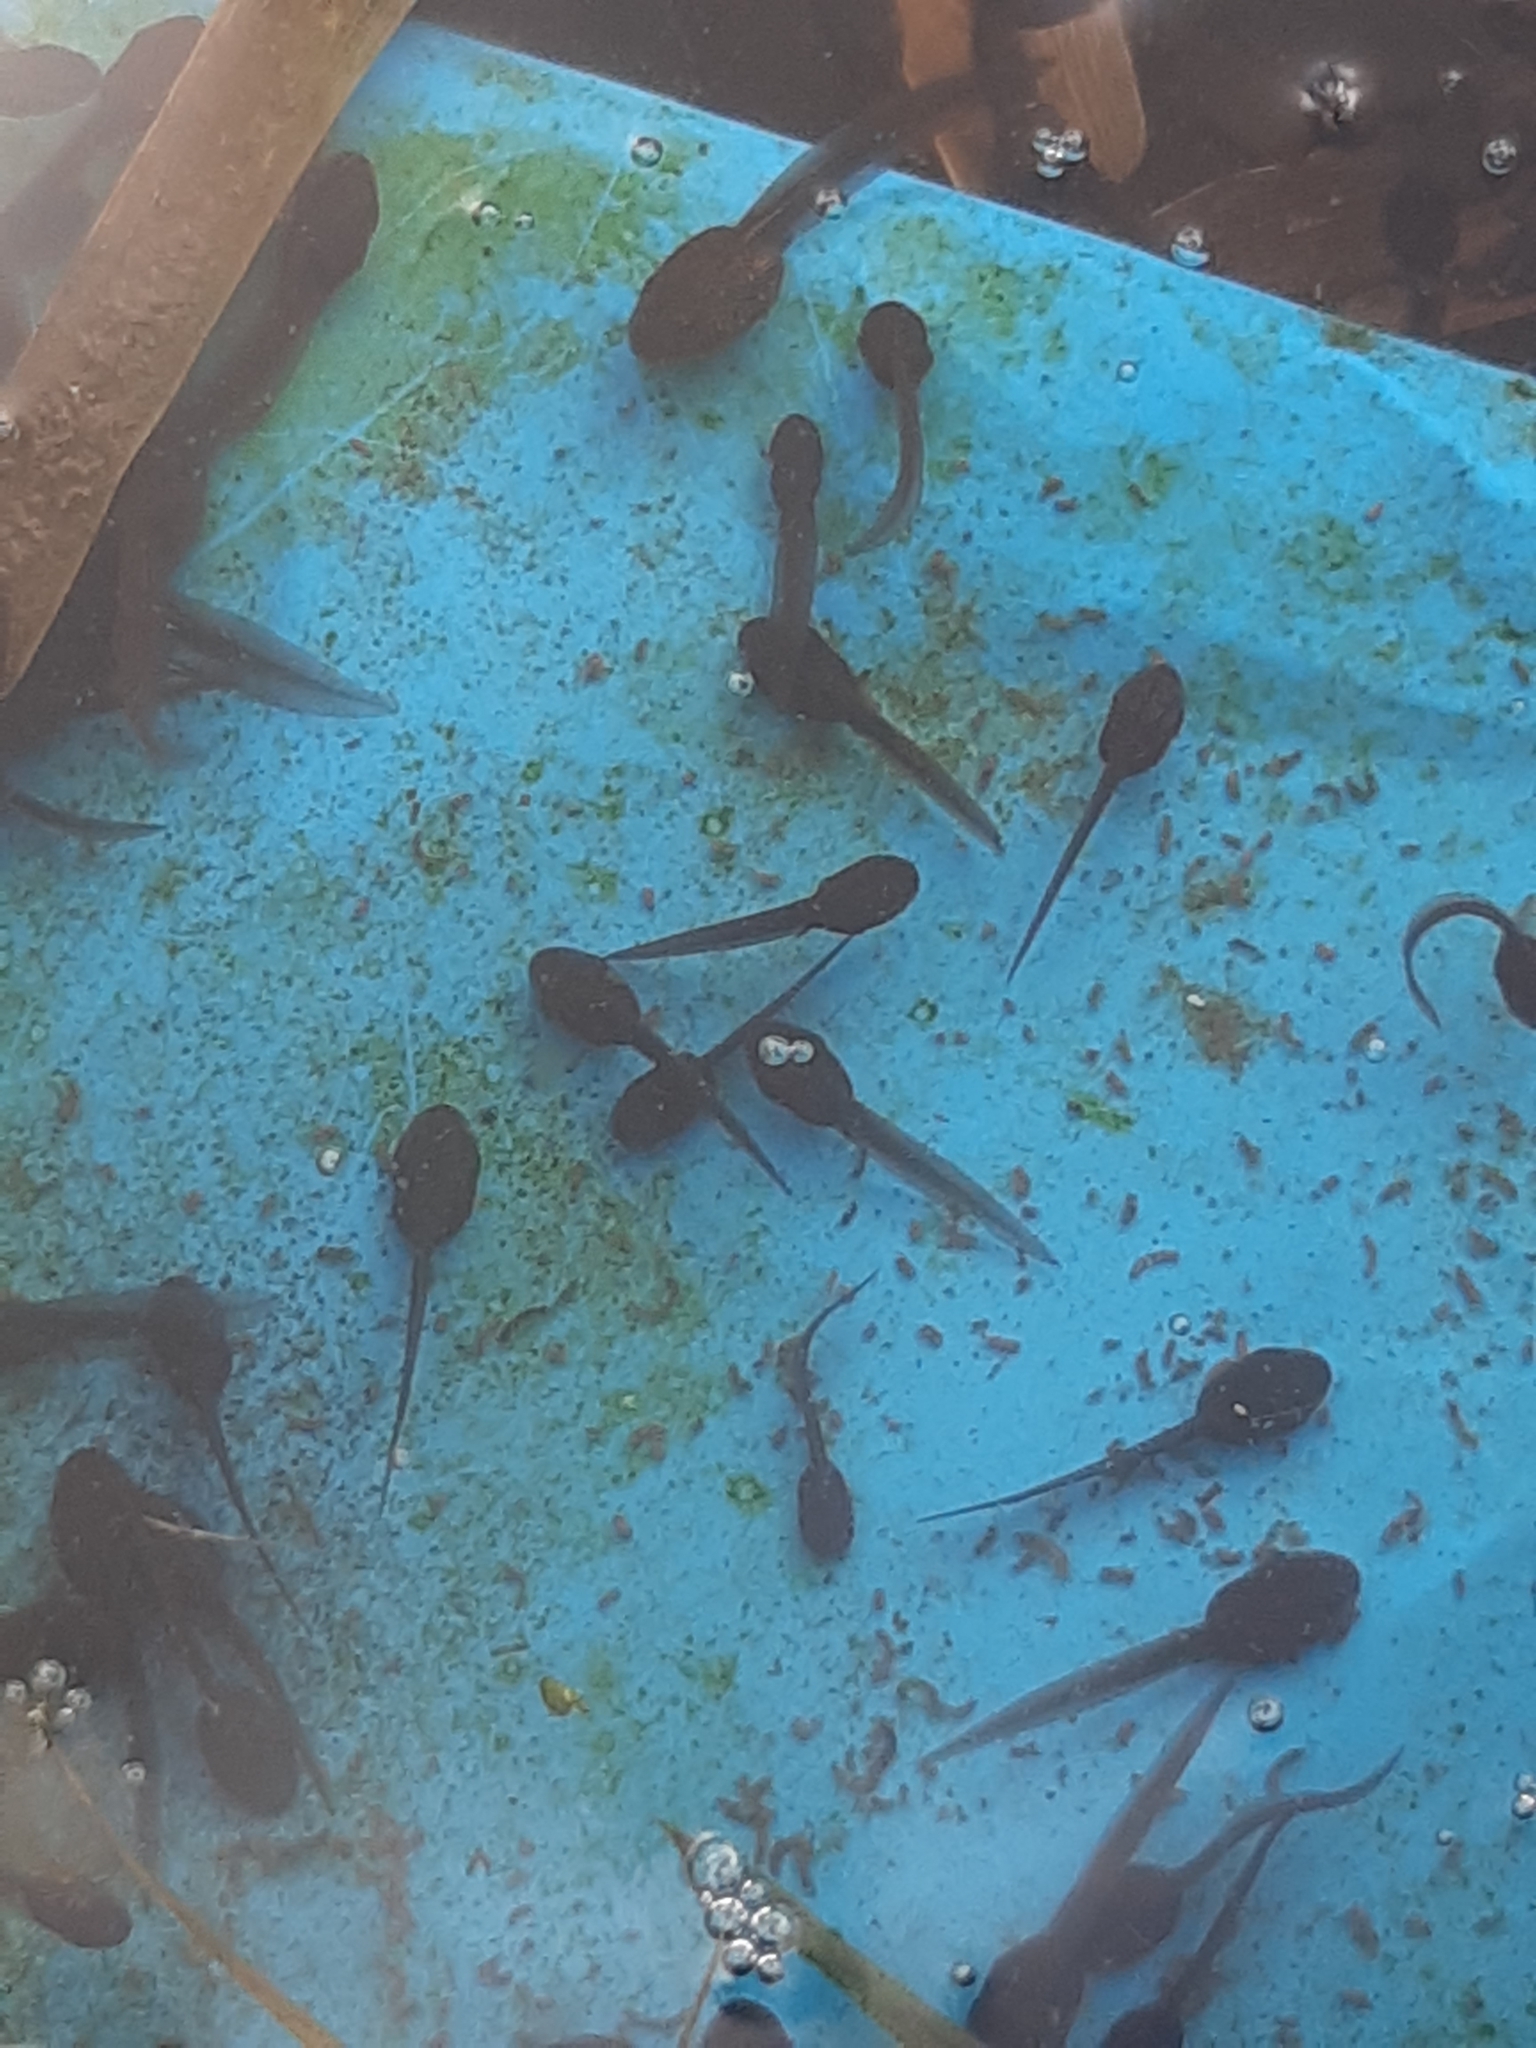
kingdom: Animalia
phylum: Chordata
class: Amphibia
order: Anura
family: Ranidae
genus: Rana
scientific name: Rana temporaria
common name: Common frog
